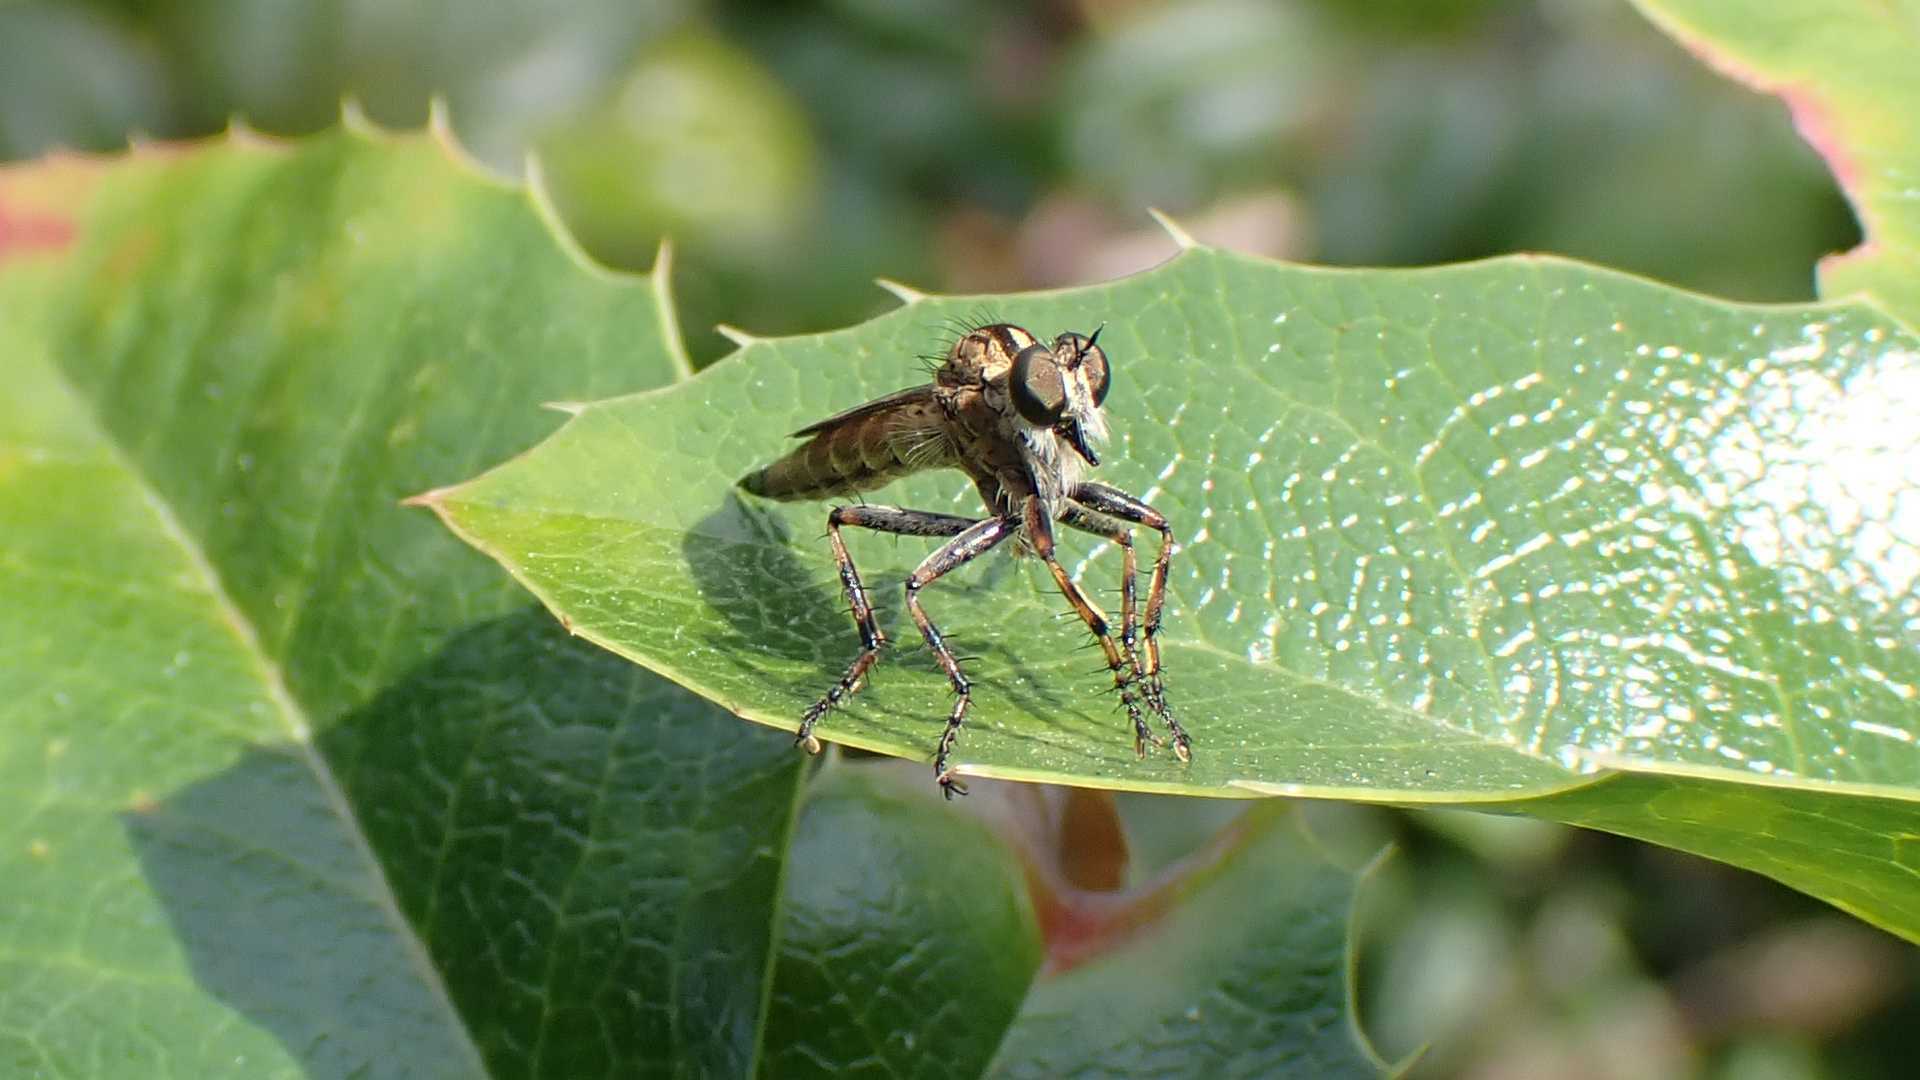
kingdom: Animalia
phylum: Arthropoda
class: Insecta
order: Diptera
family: Asilidae
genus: Epitriptus
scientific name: Epitriptus cingulatus
